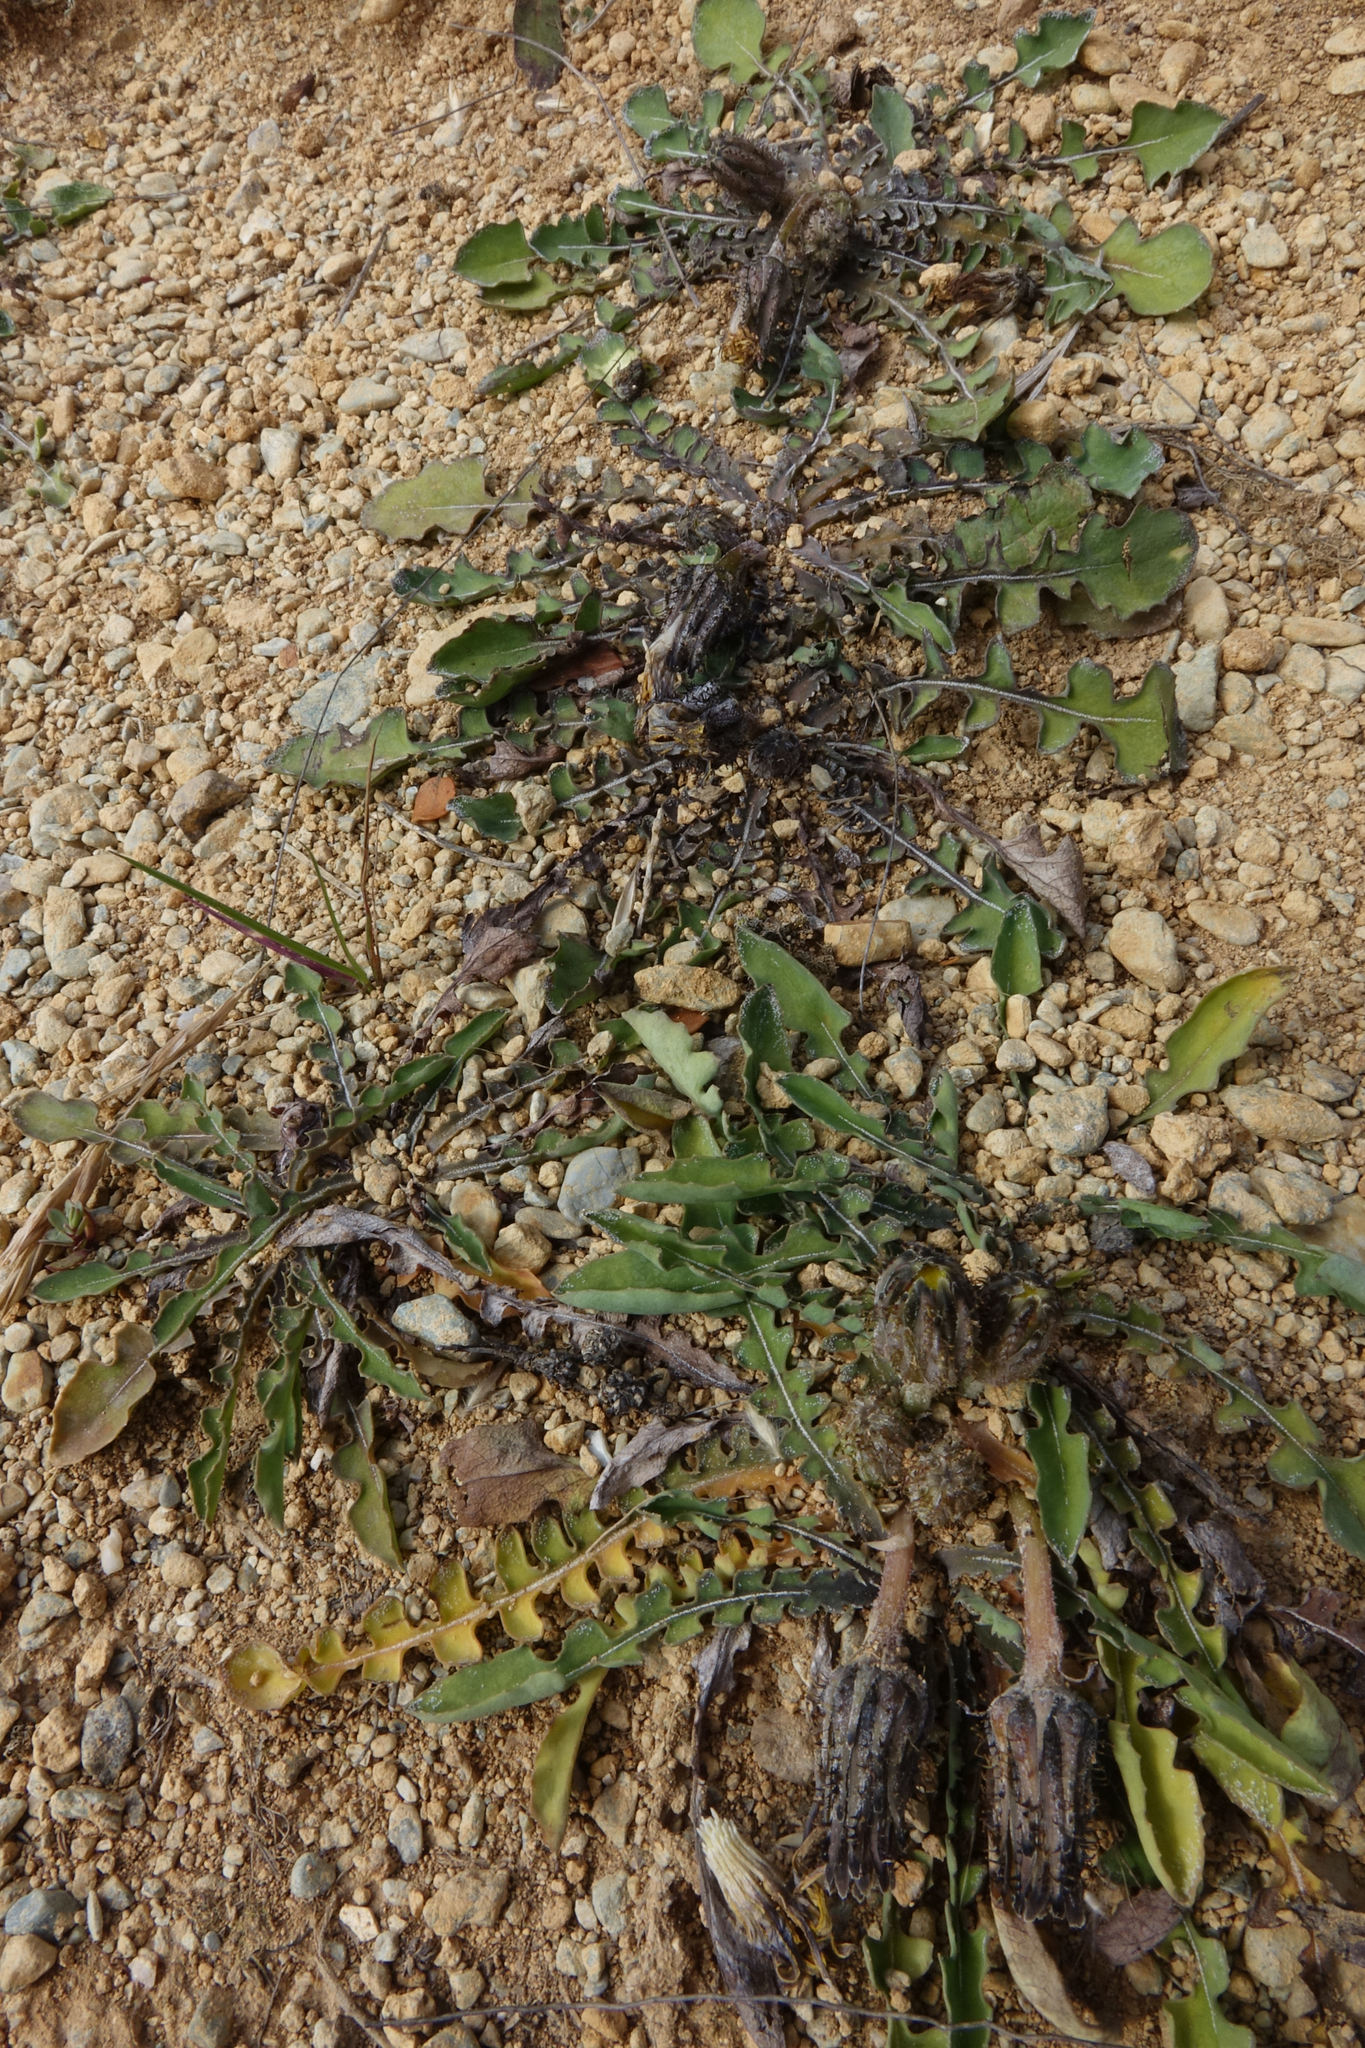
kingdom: Plantae
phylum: Tracheophyta
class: Magnoliopsida
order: Asterales
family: Asteraceae
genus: Sonchus
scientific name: Sonchus novae-zelandiae
